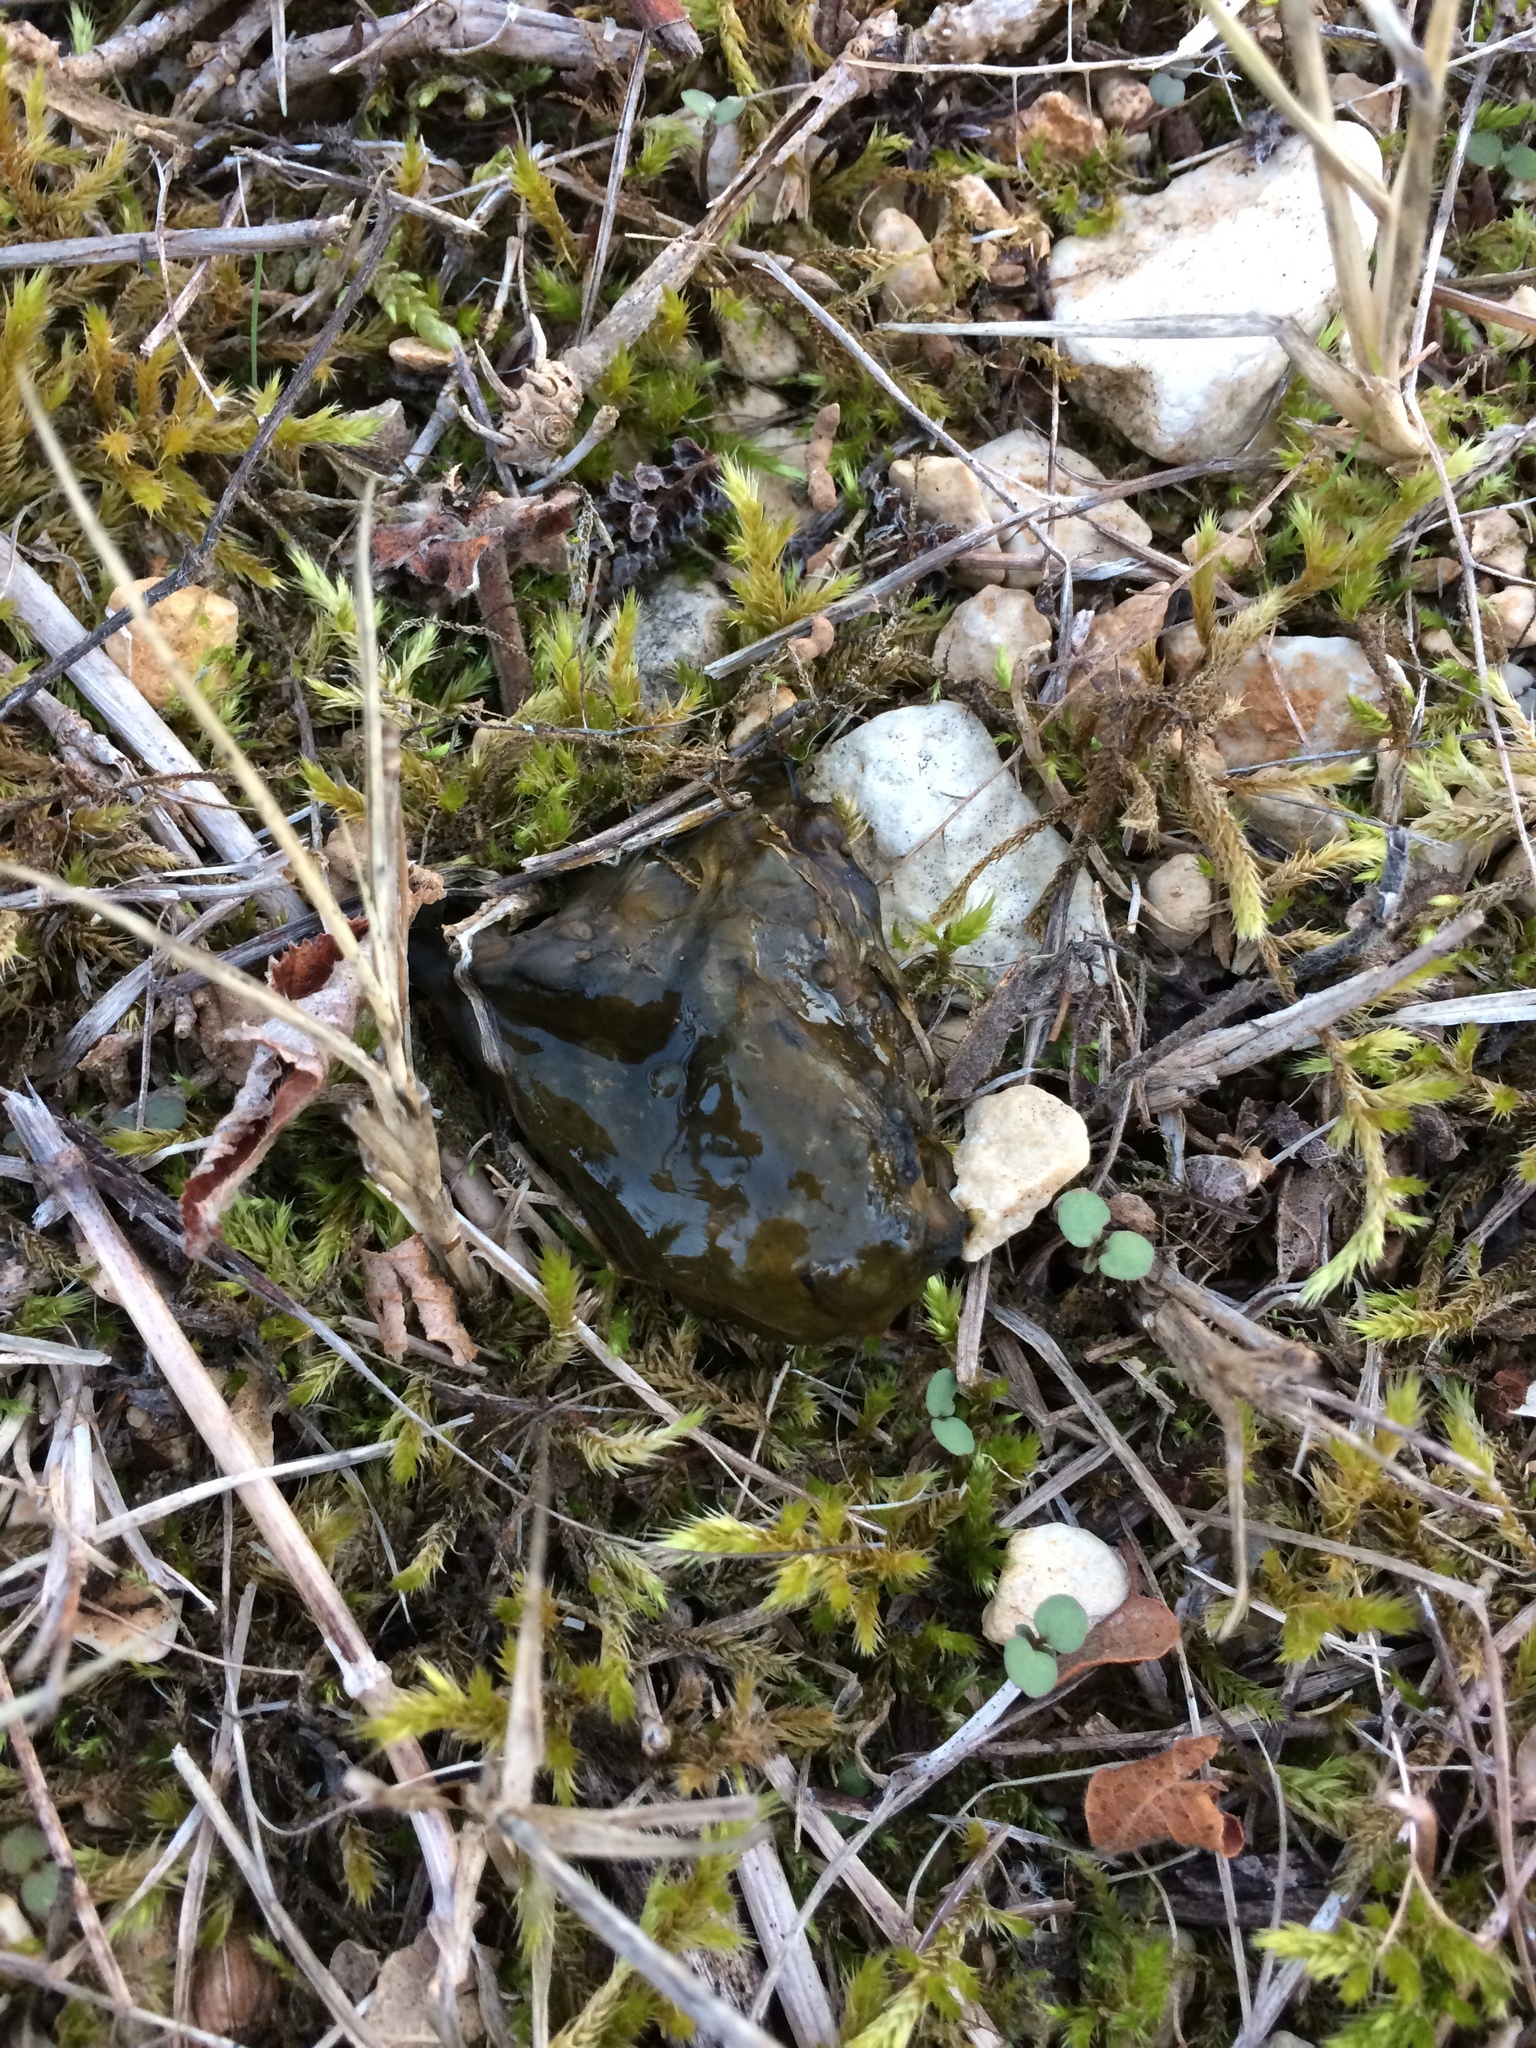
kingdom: Bacteria
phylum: Cyanobacteria
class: Cyanobacteriia
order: Cyanobacteriales
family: Nostocaceae
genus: Nostoc
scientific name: Nostoc commune
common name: Star jelly
